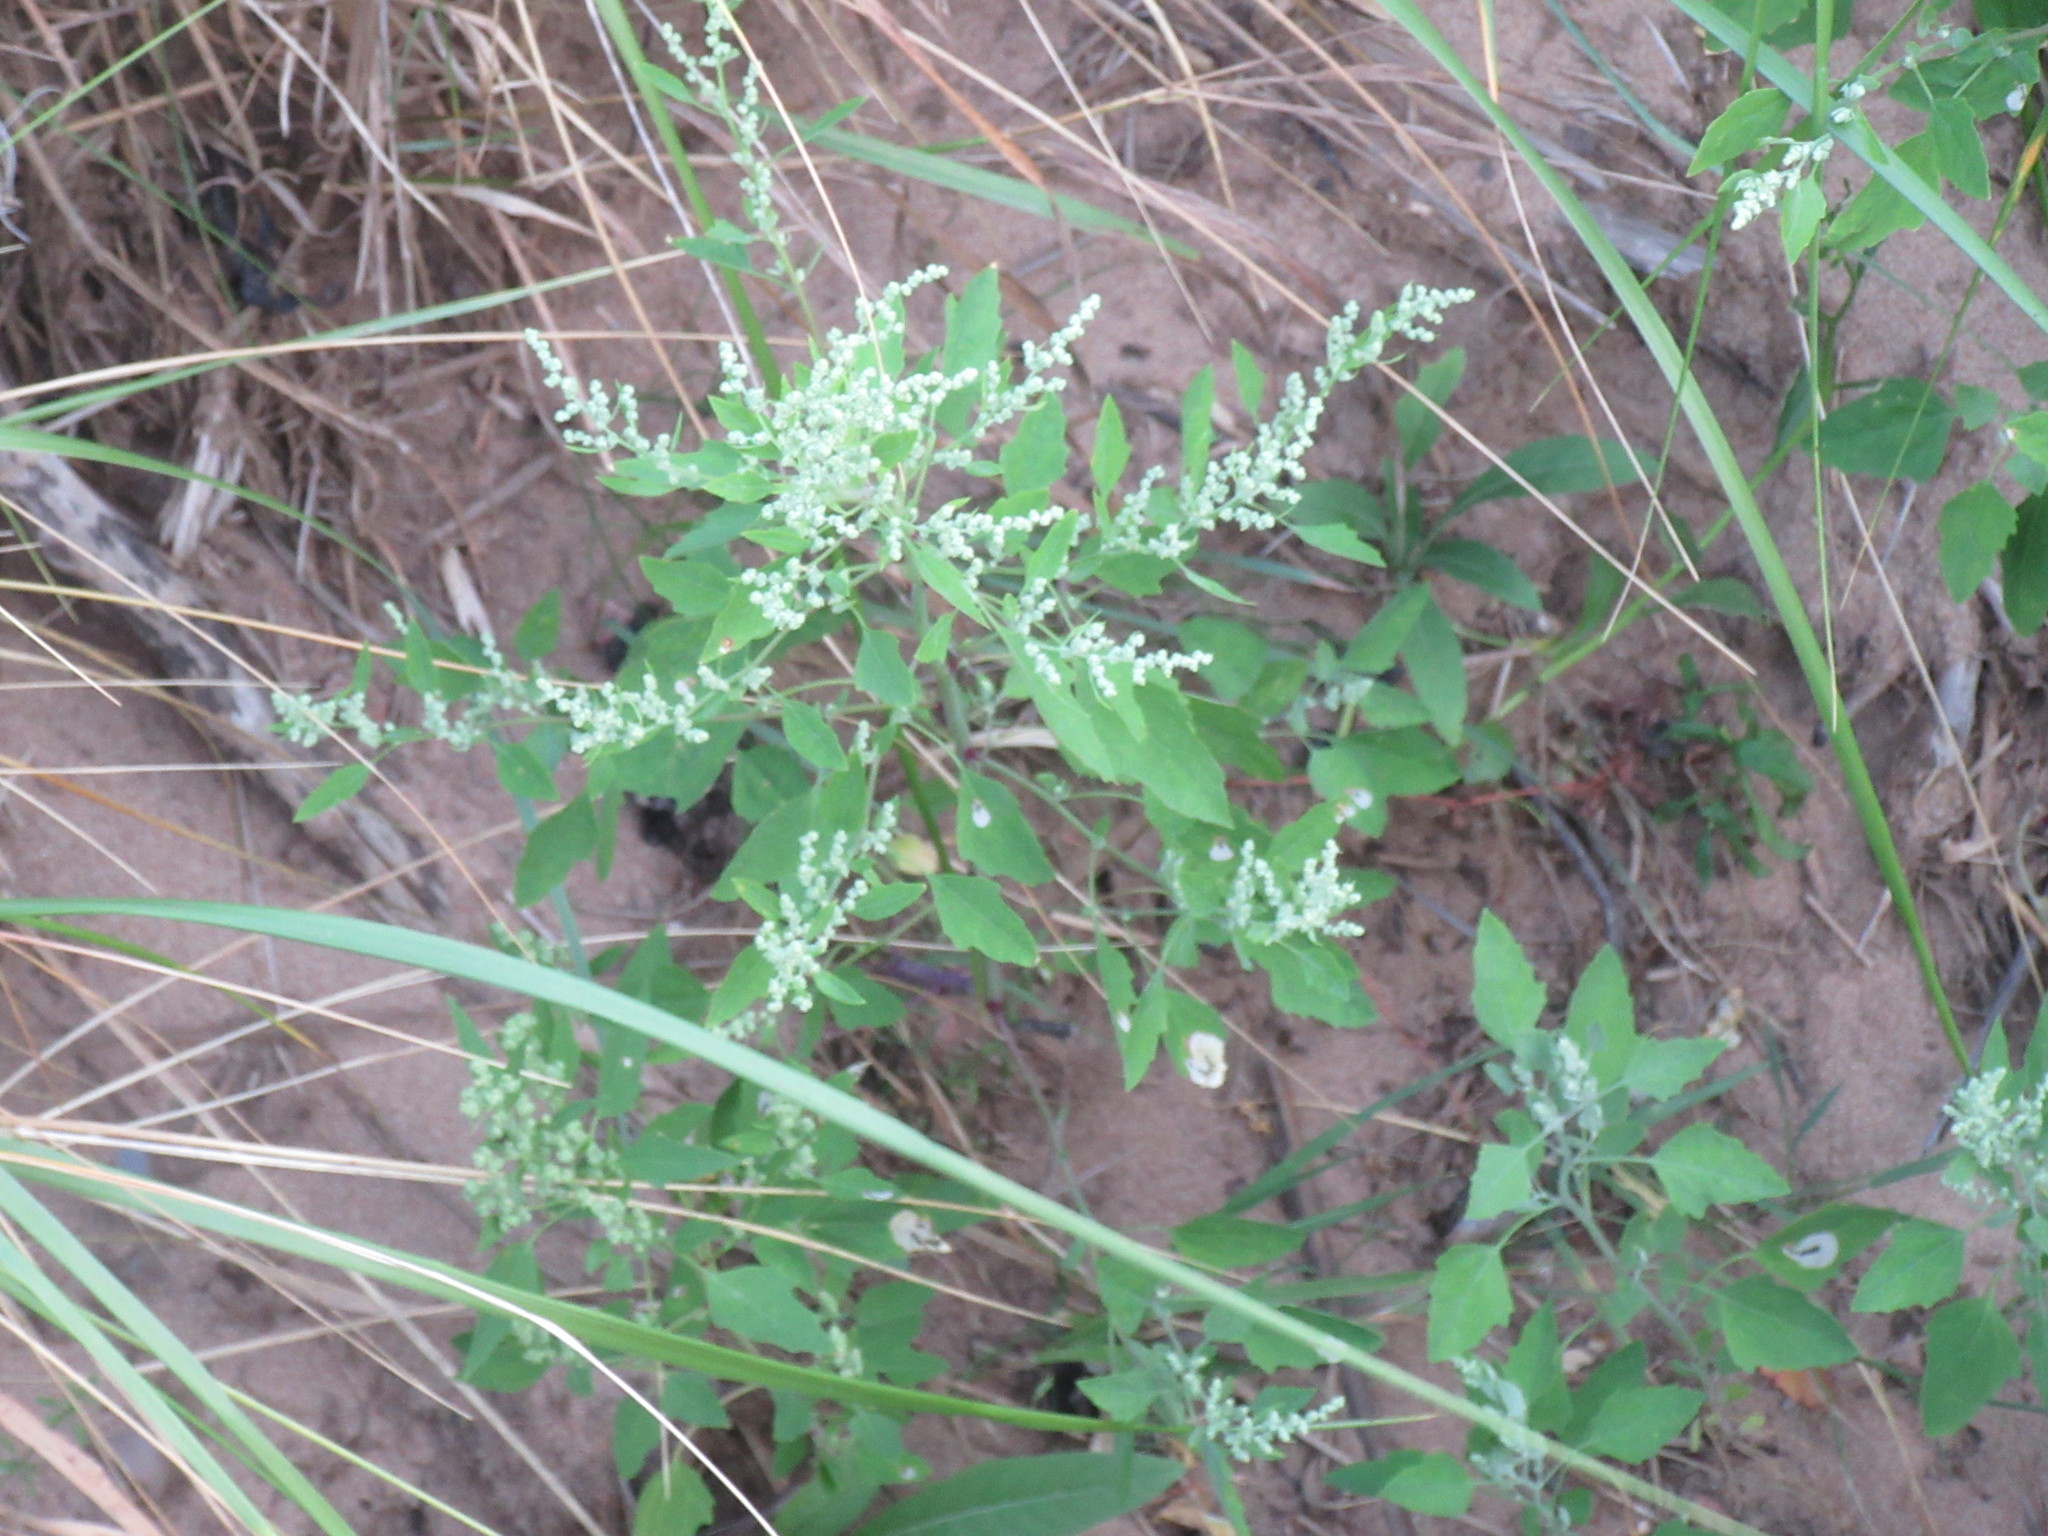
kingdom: Plantae
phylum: Tracheophyta
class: Magnoliopsida
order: Caryophyllales
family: Amaranthaceae
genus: Chenopodium
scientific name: Chenopodium album
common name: Fat-hen
